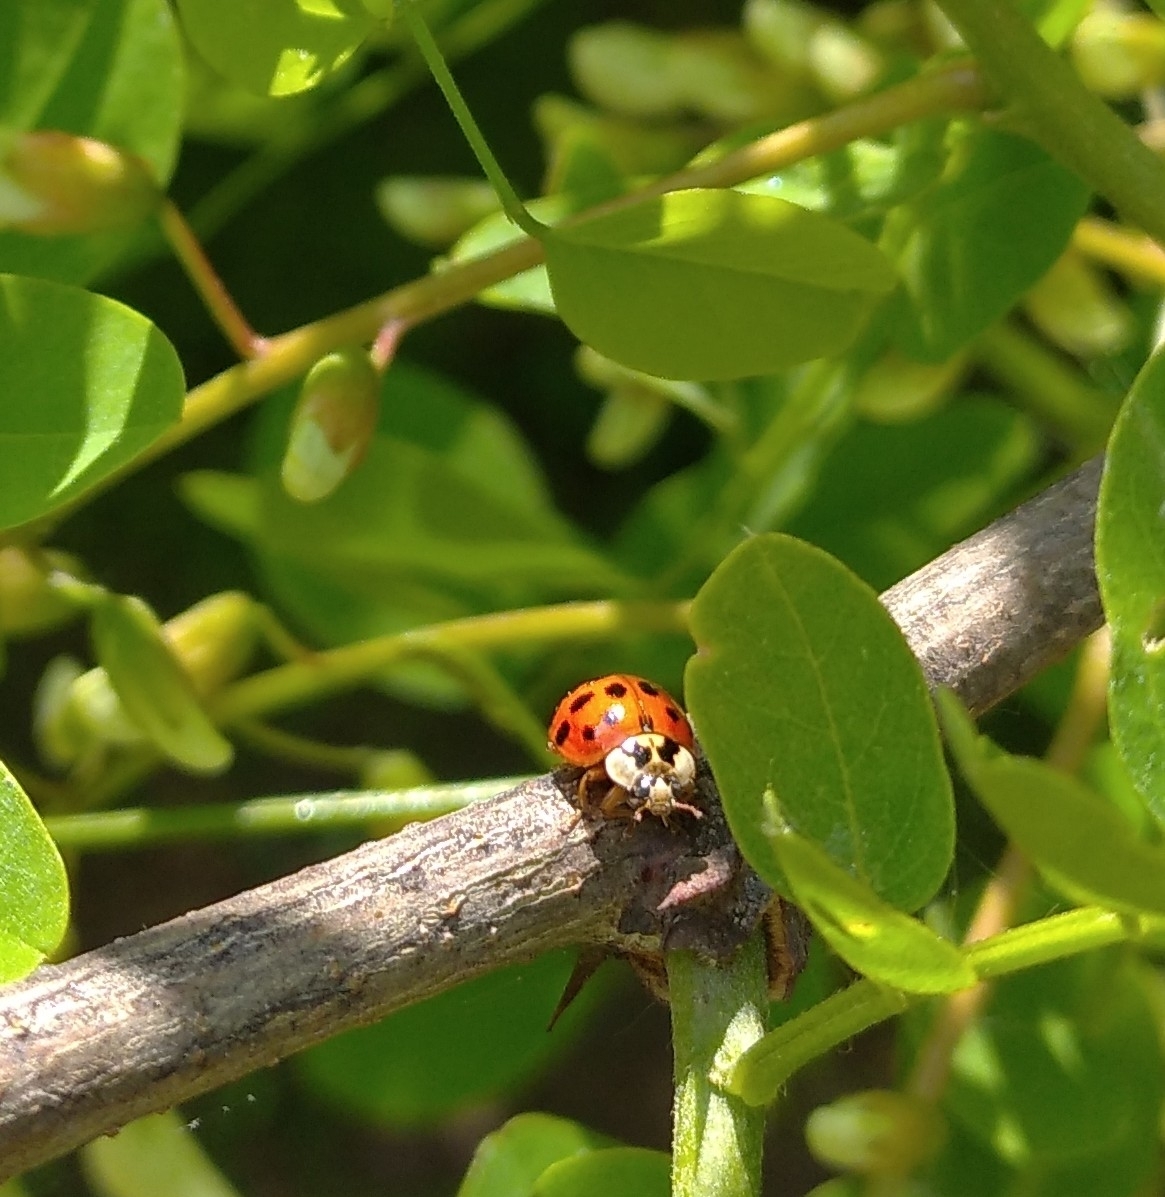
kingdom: Animalia
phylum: Arthropoda
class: Insecta
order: Coleoptera
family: Coccinellidae
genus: Harmonia
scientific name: Harmonia axyridis
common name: Harlequin ladybird
